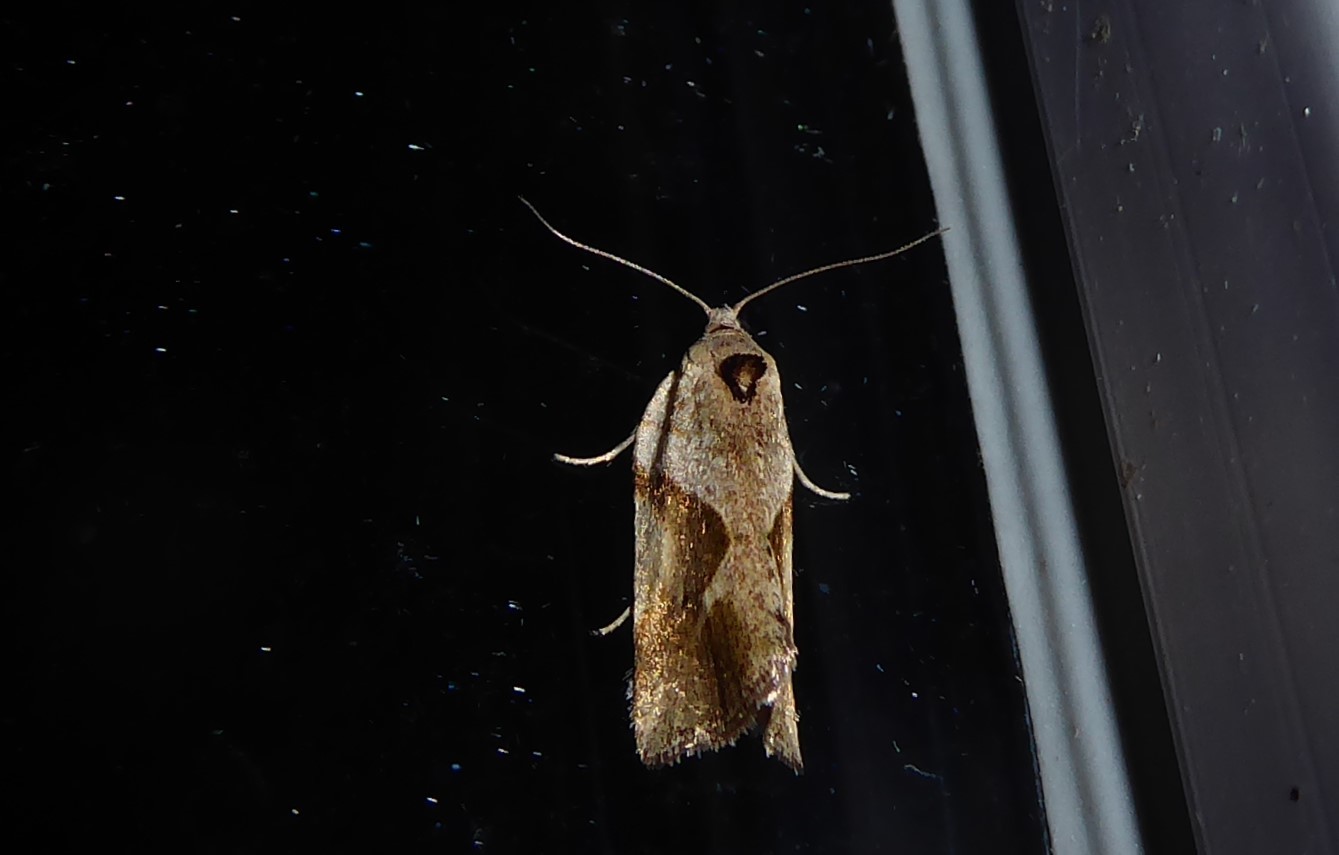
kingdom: Animalia
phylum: Arthropoda
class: Insecta
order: Lepidoptera
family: Tortricidae
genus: Pyrgotis
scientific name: Pyrgotis plagiatana
